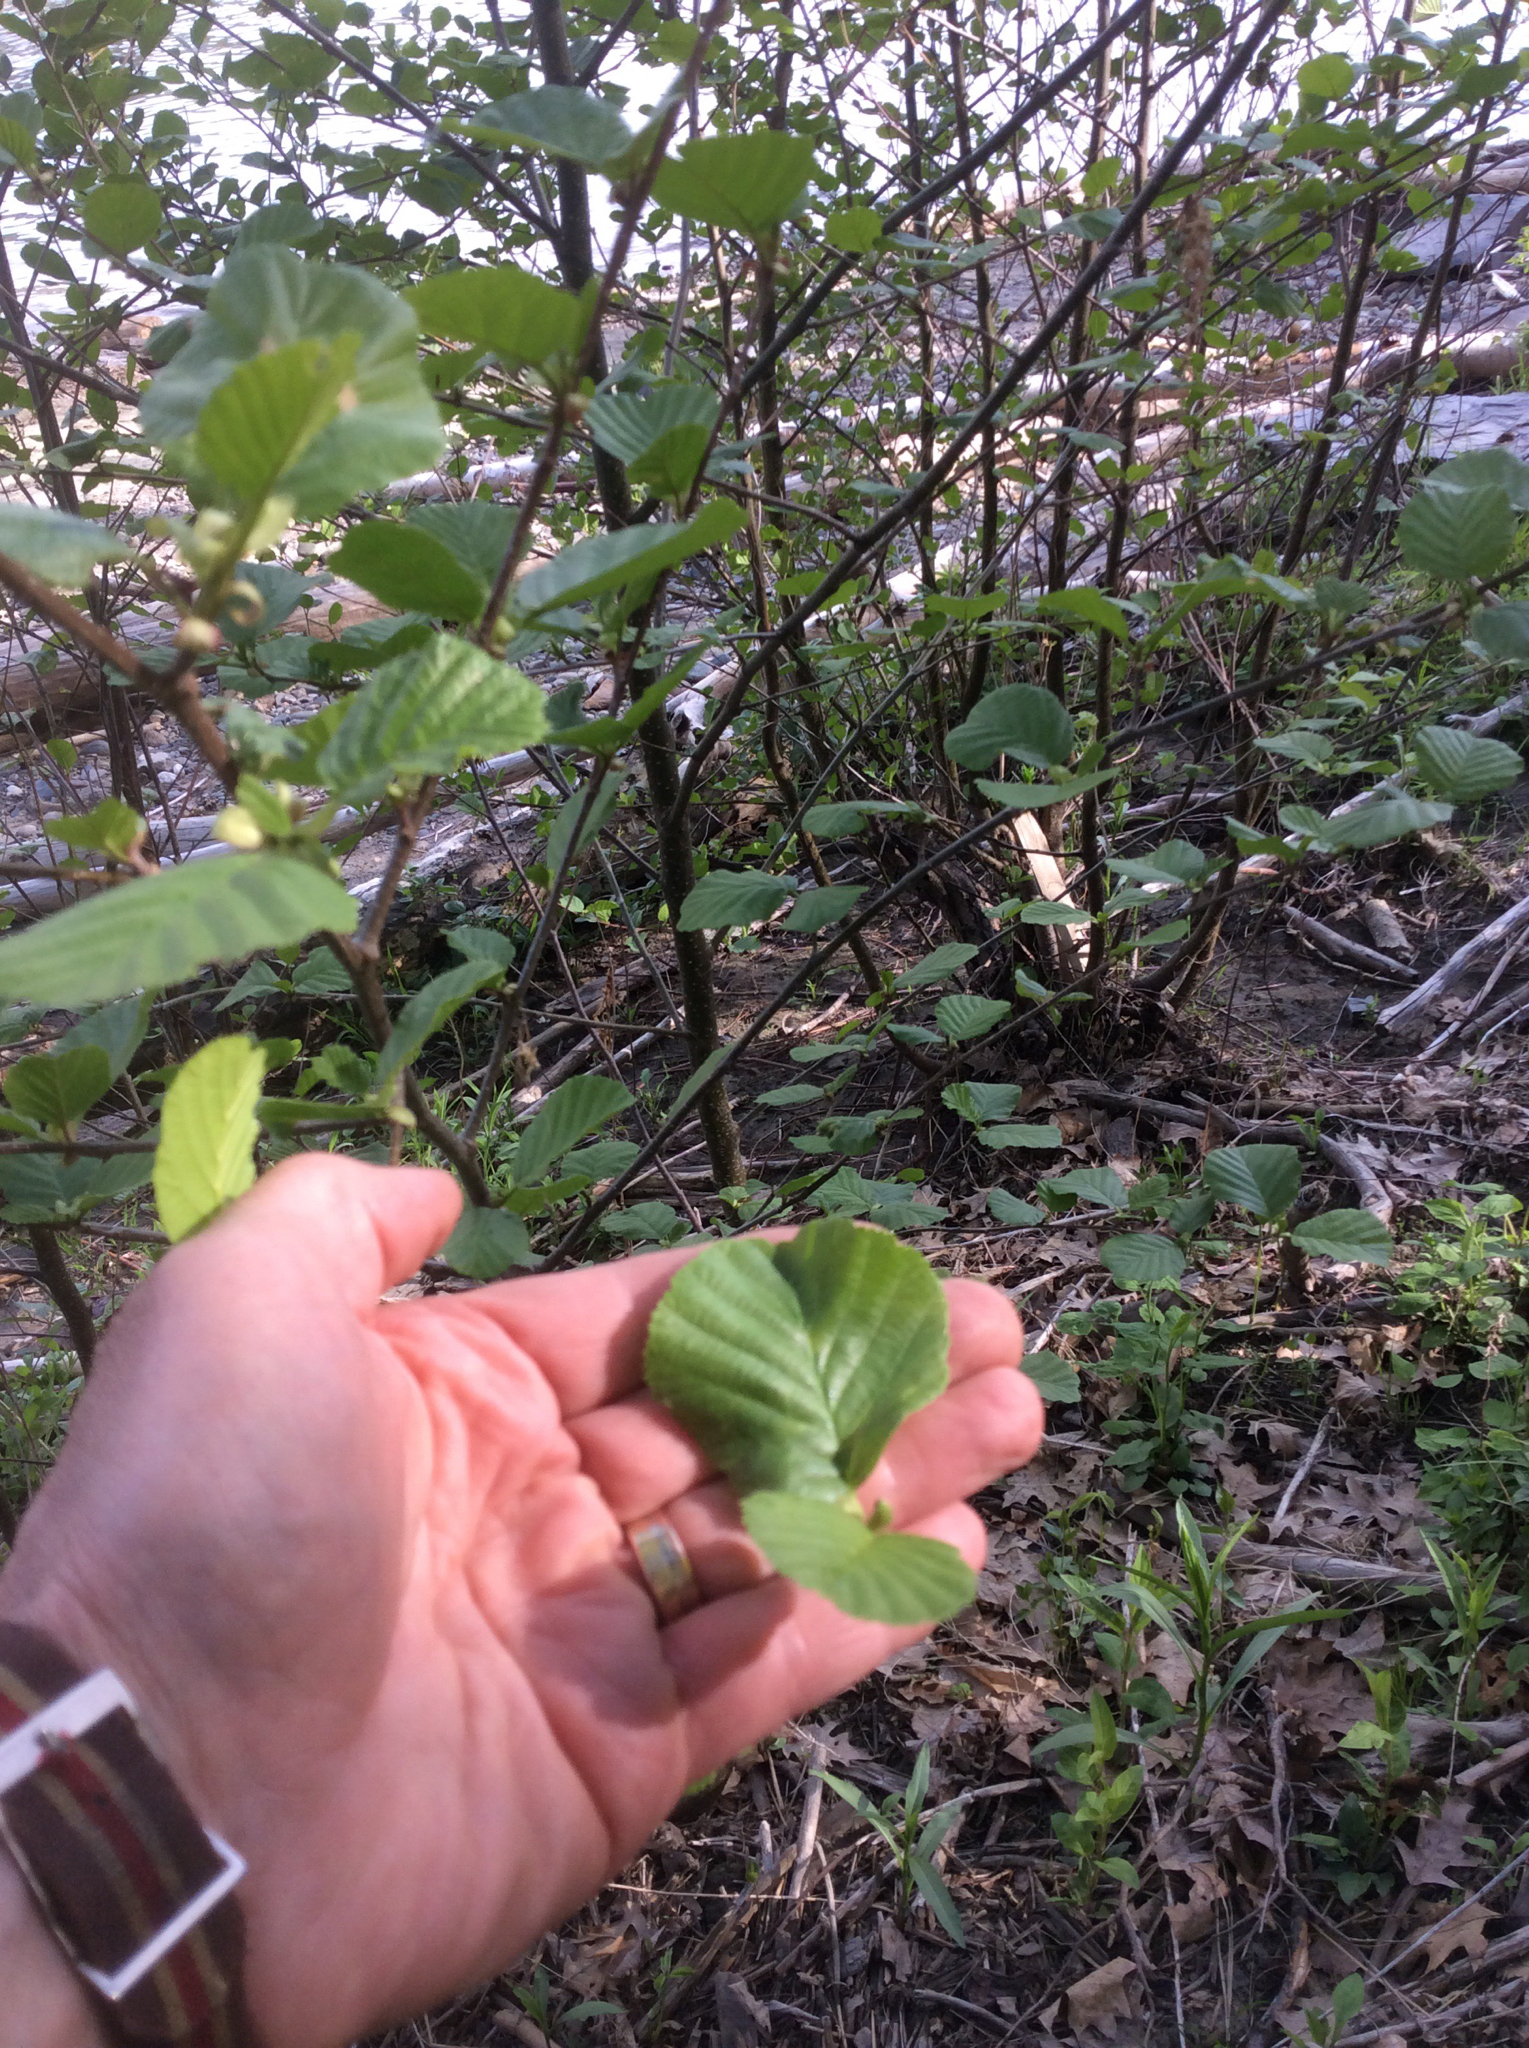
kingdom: Plantae
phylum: Tracheophyta
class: Magnoliopsida
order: Fagales
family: Betulaceae
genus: Alnus
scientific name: Alnus glutinosa
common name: Black alder
